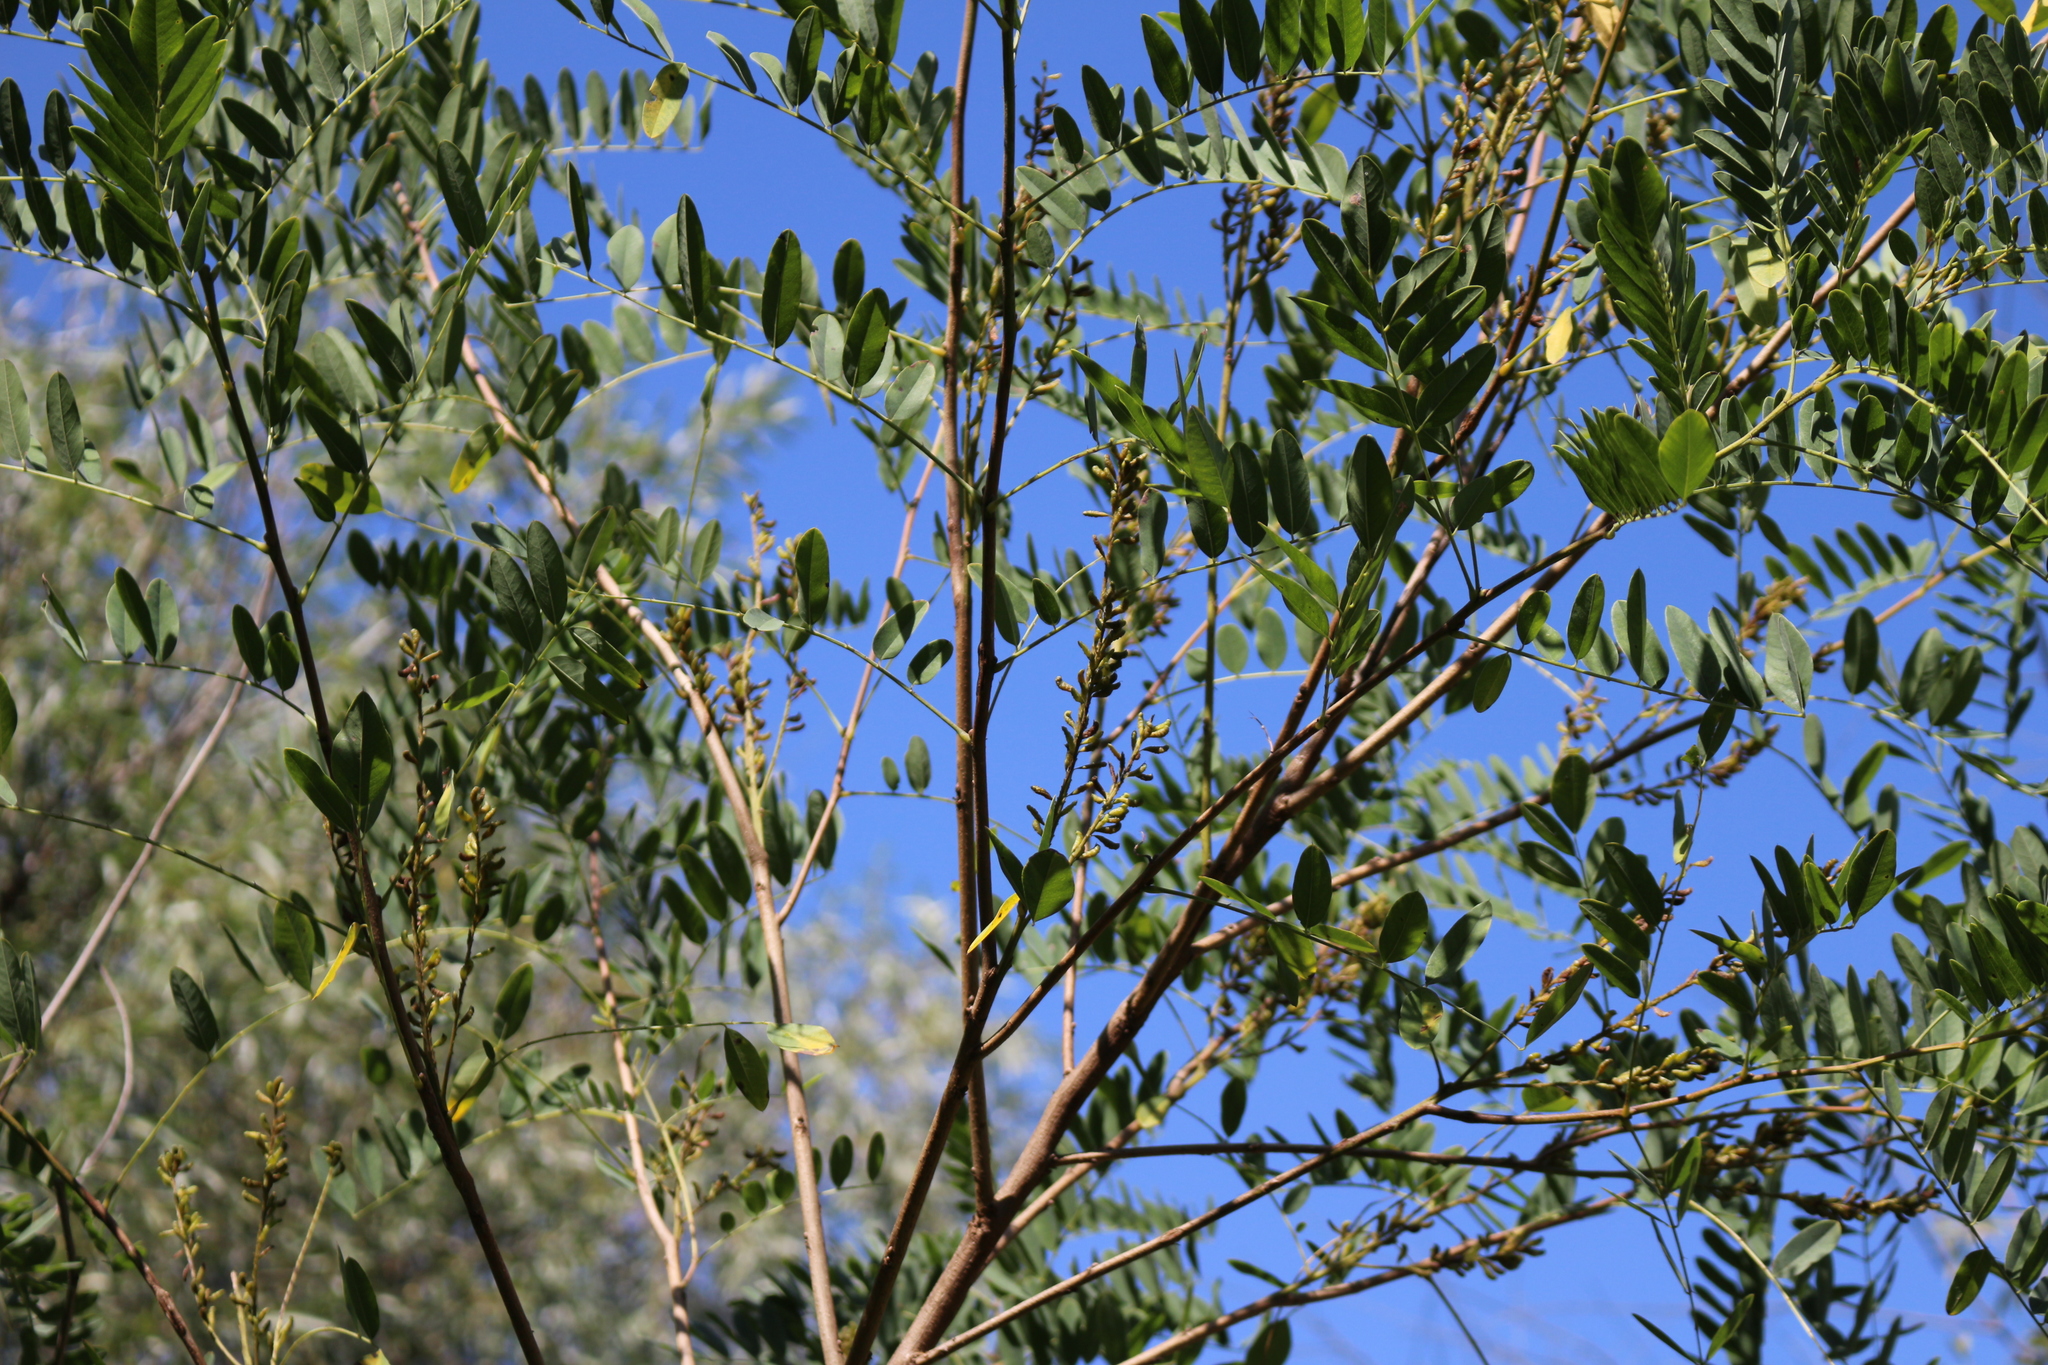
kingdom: Plantae
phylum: Tracheophyta
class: Magnoliopsida
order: Fabales
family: Fabaceae
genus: Amorpha
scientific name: Amorpha fruticosa
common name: False indigo
